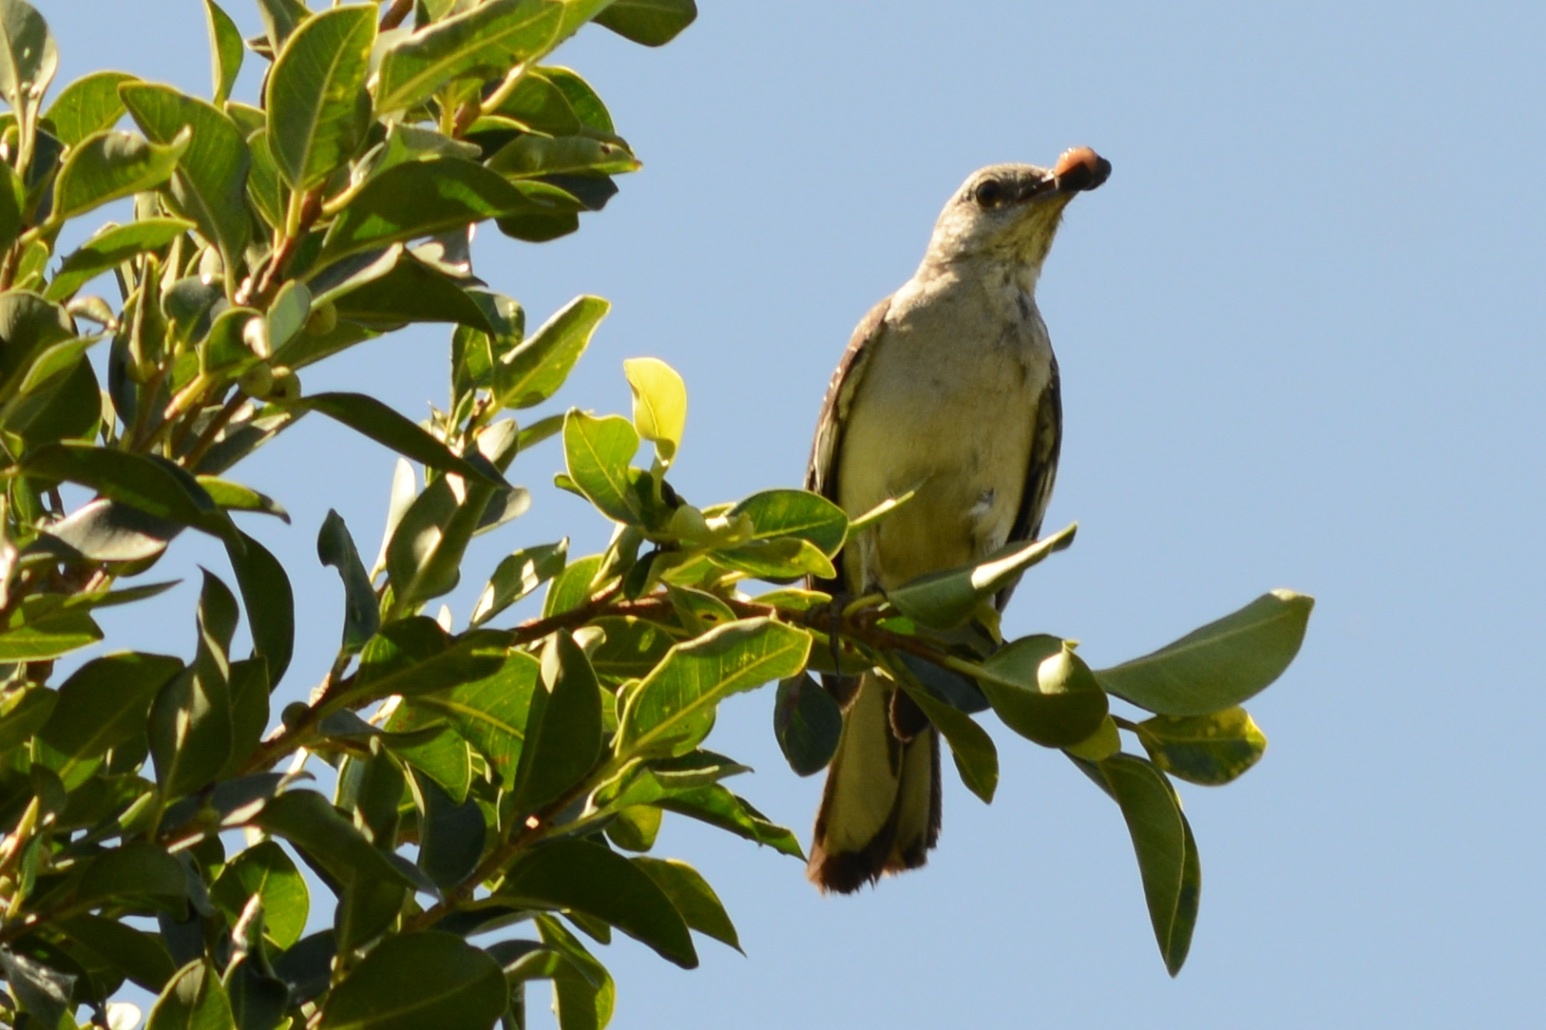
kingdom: Animalia
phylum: Chordata
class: Aves
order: Passeriformes
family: Mimidae
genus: Mimus
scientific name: Mimus polyglottos
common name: Northern mockingbird
